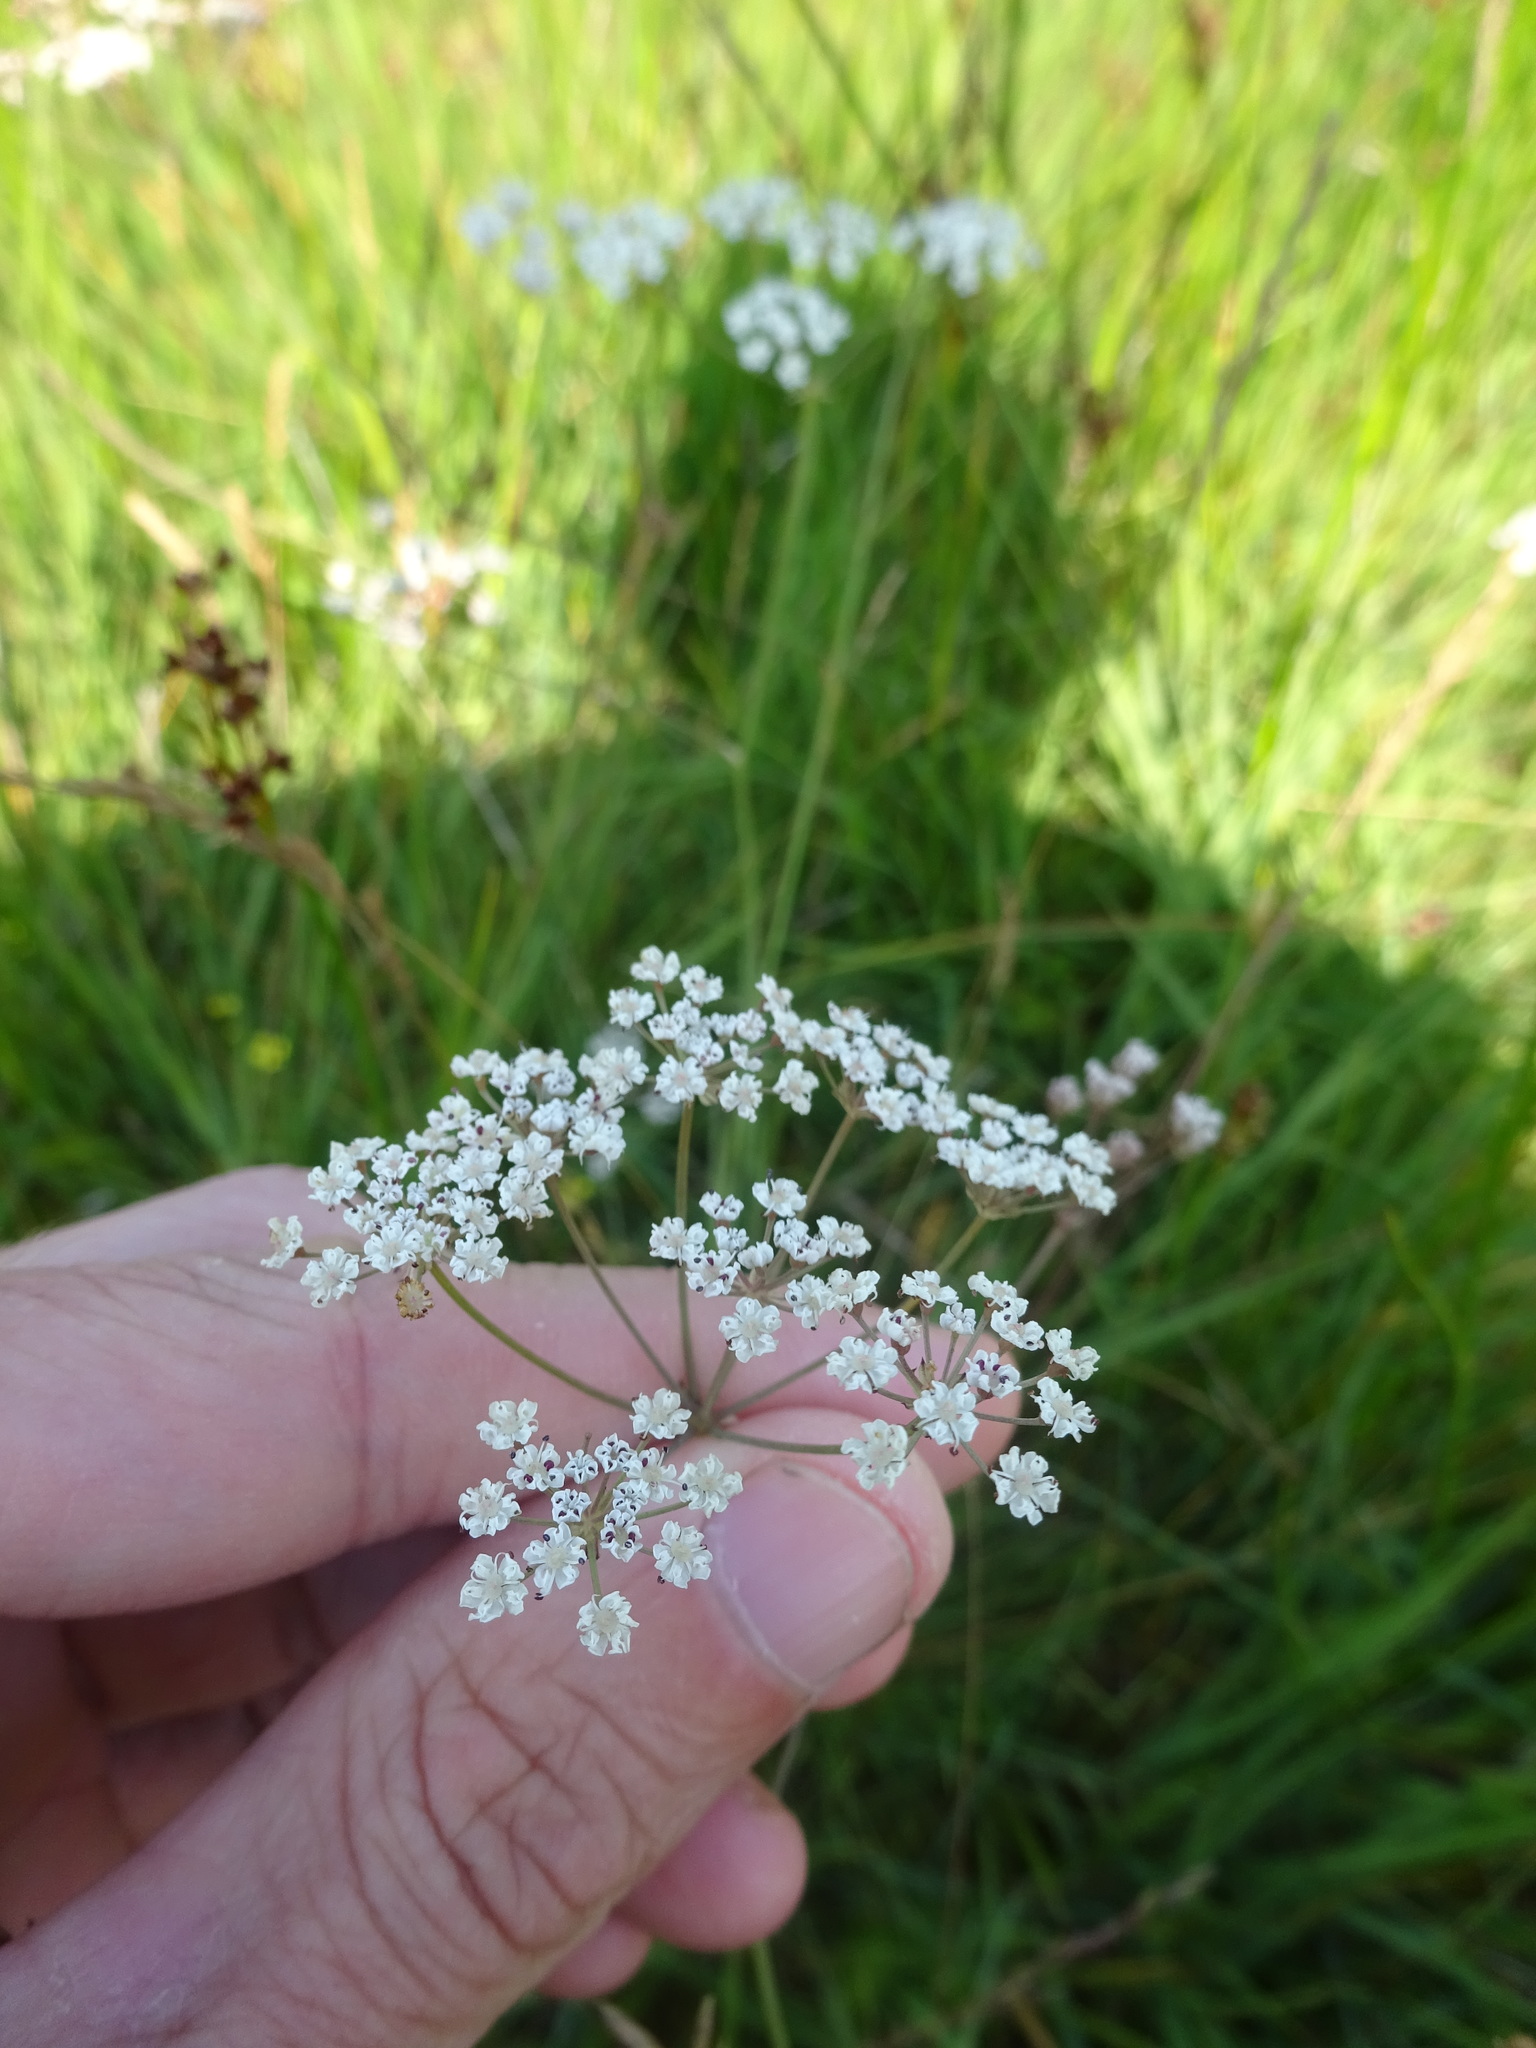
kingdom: Plantae
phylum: Tracheophyta
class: Magnoliopsida
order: Apiales
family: Apiaceae
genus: Trocdaris
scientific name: Trocdaris verticillatum
